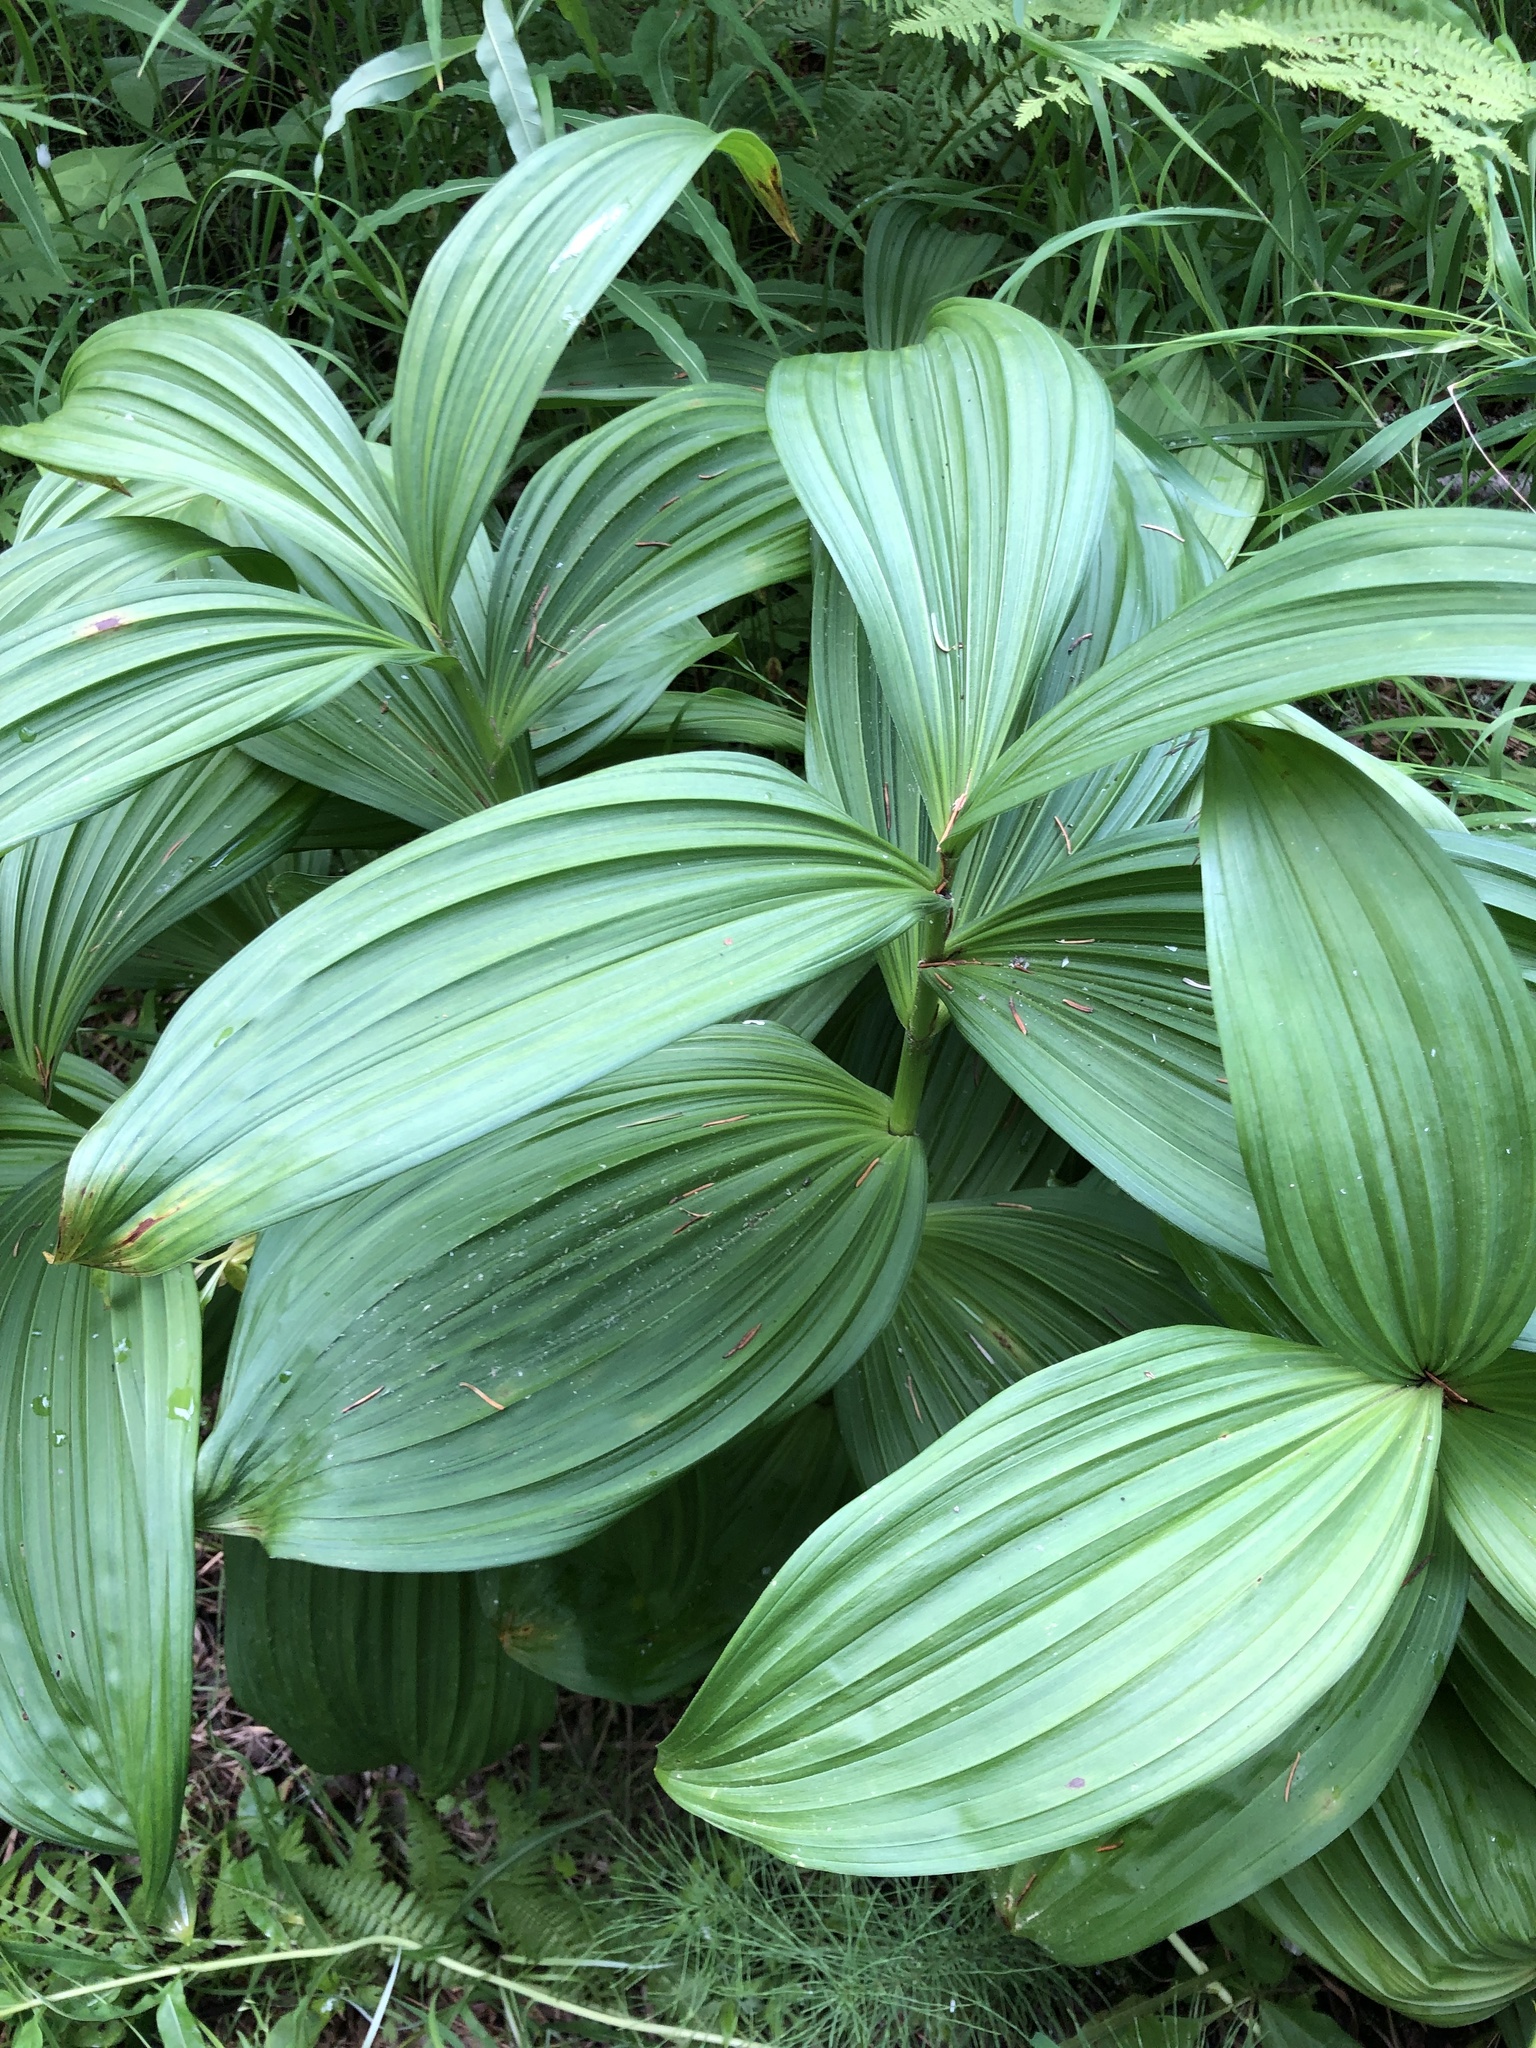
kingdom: Plantae
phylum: Tracheophyta
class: Liliopsida
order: Liliales
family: Melanthiaceae
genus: Veratrum
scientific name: Veratrum lobelianum
